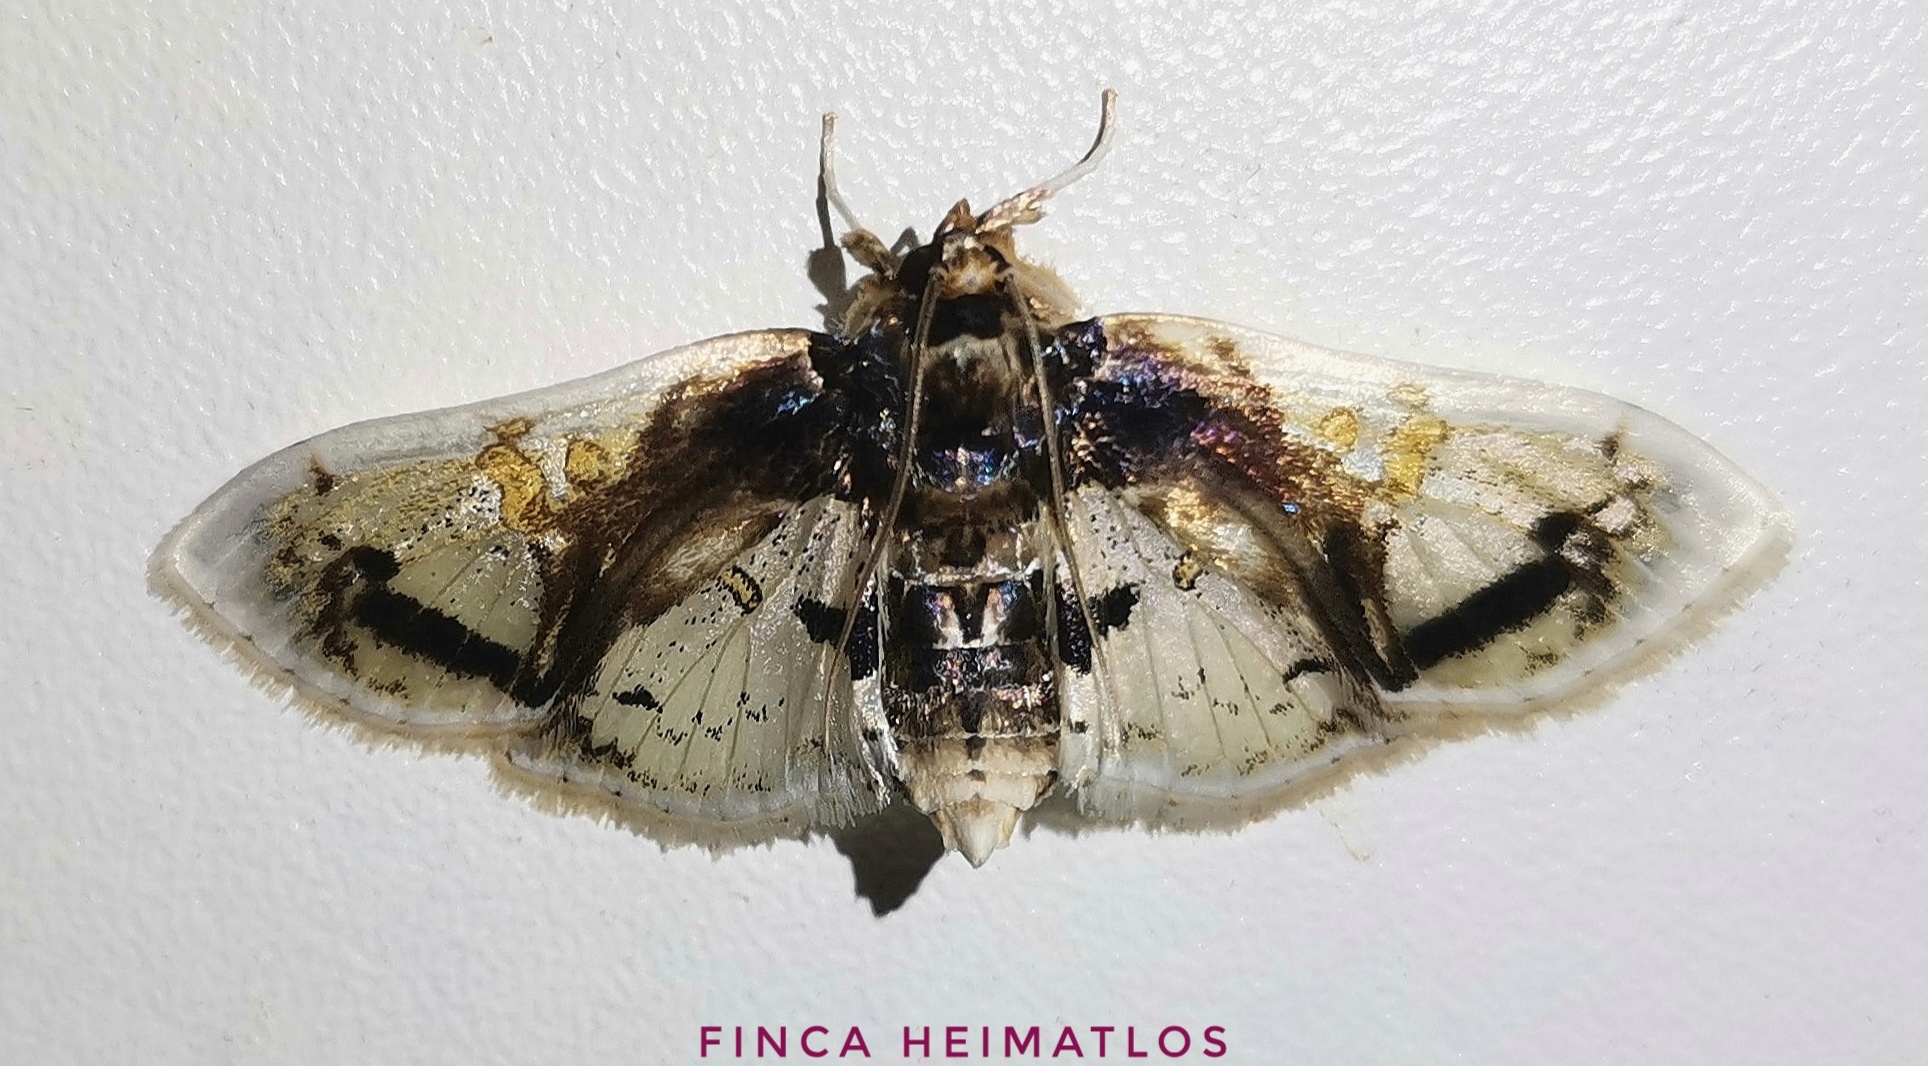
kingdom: Animalia
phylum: Arthropoda
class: Insecta
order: Lepidoptera
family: Crambidae
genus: Compacta
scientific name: Compacta nigrolinealis
